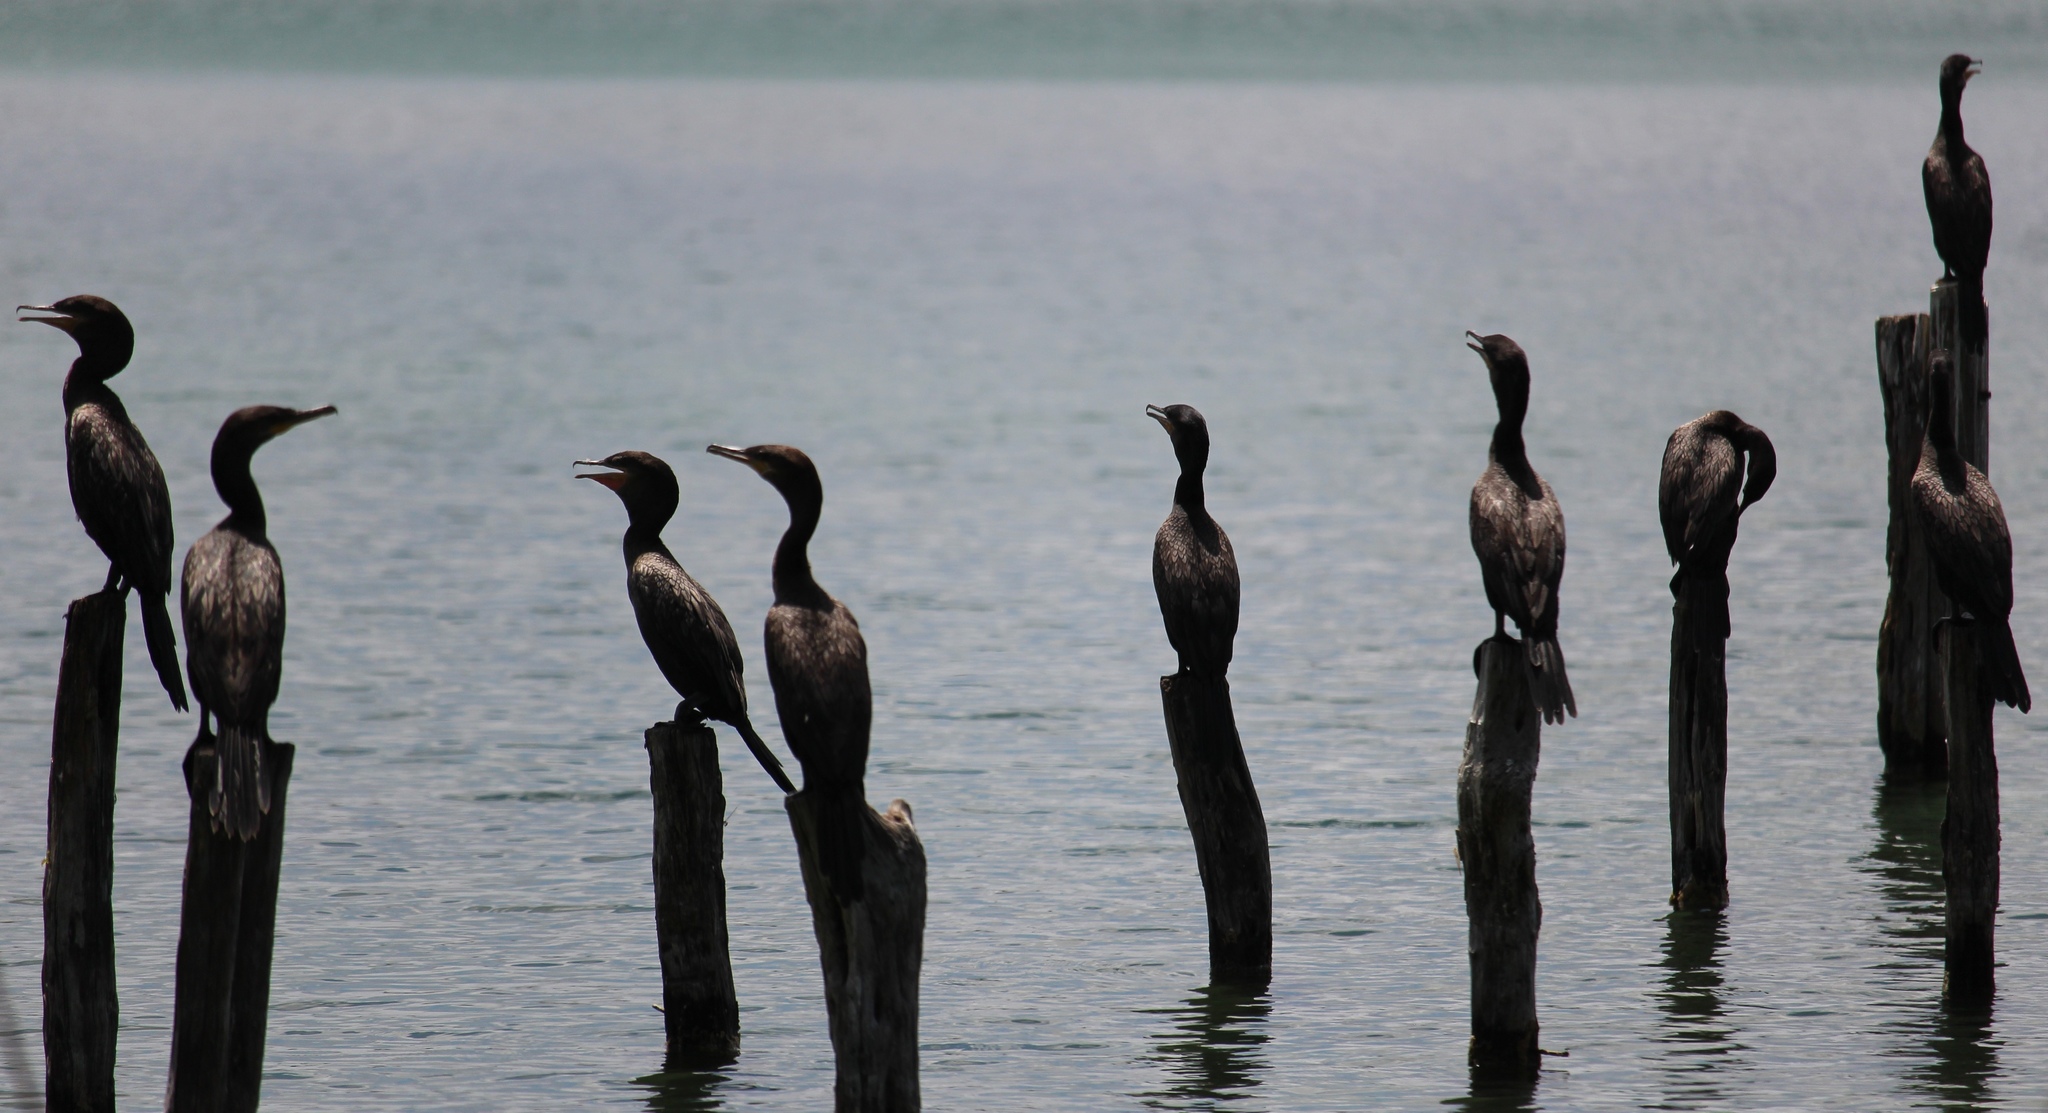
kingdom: Animalia
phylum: Chordata
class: Aves
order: Suliformes
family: Phalacrocoracidae
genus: Phalacrocorax
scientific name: Phalacrocorax brasilianus
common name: Neotropic cormorant
